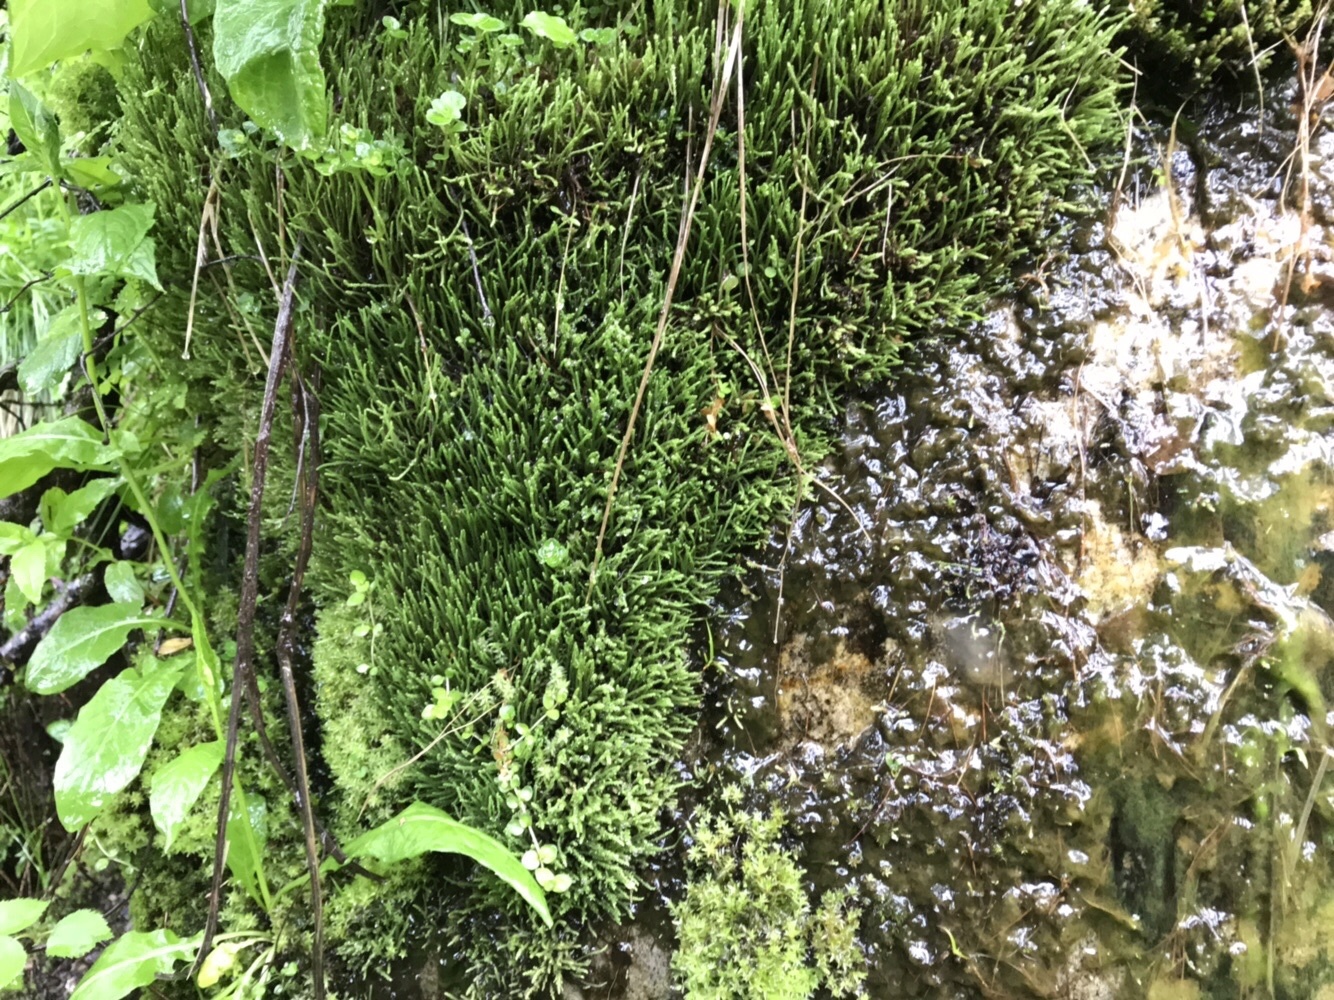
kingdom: Plantae
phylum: Bryophyta
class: Bryopsida
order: Bartramiales
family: Bartramiaceae
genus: Philonotis
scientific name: Philonotis fontana
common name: Fountain apple-moss
